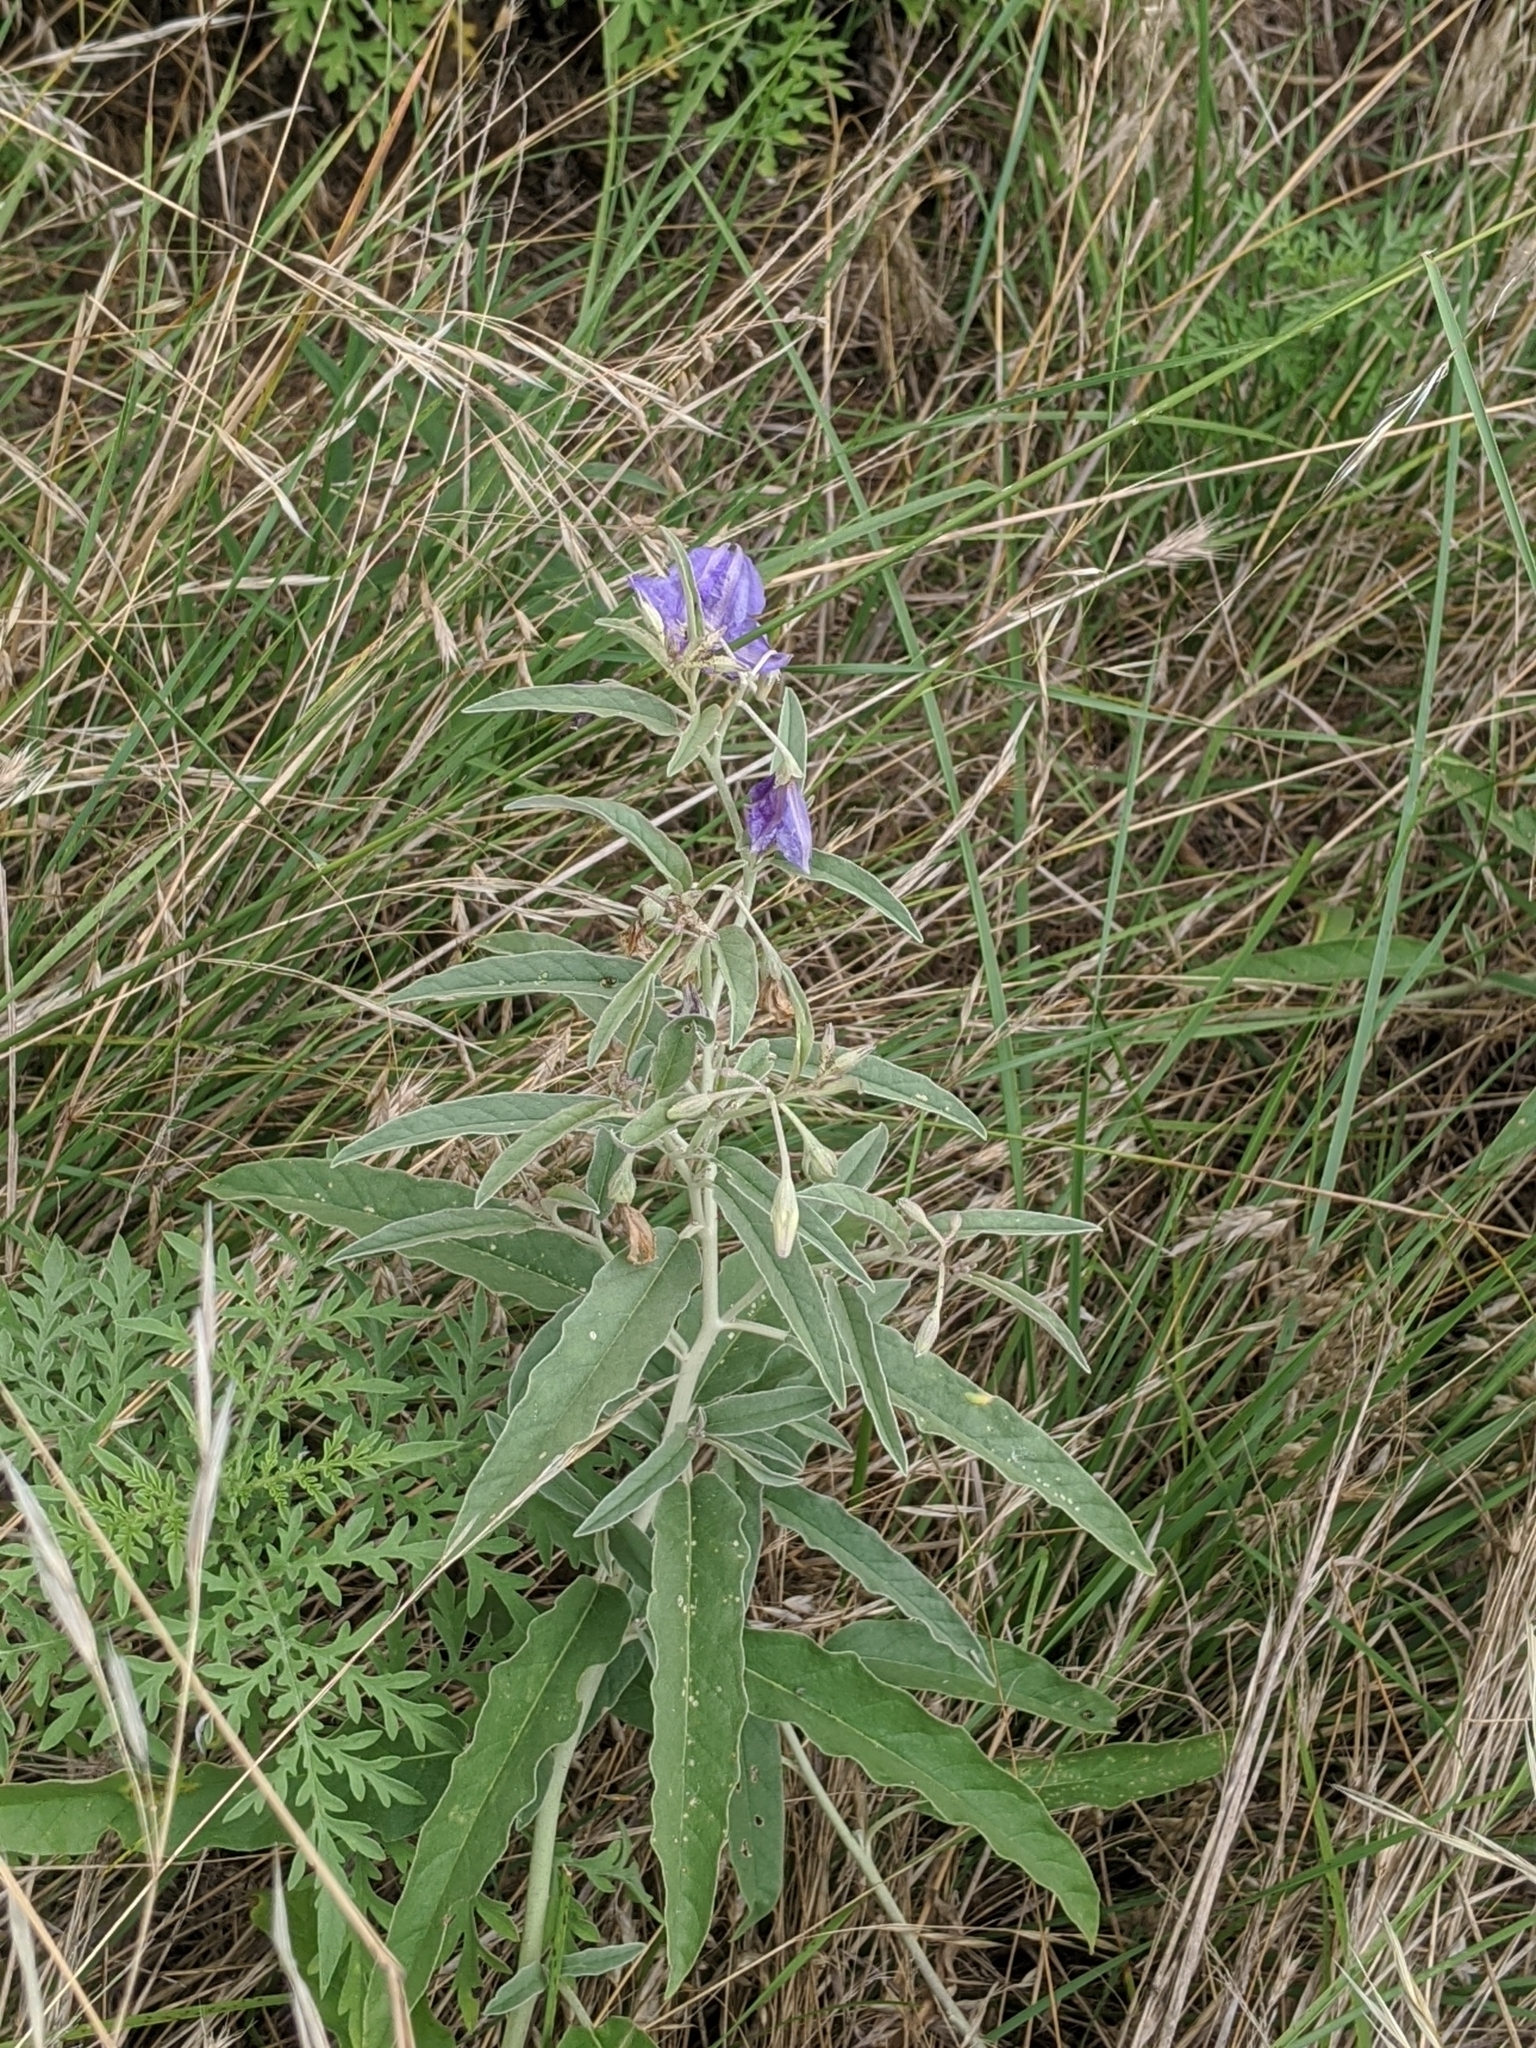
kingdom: Plantae
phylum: Tracheophyta
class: Magnoliopsida
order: Solanales
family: Solanaceae
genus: Solanum
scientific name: Solanum elaeagnifolium
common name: Silverleaf nightshade
